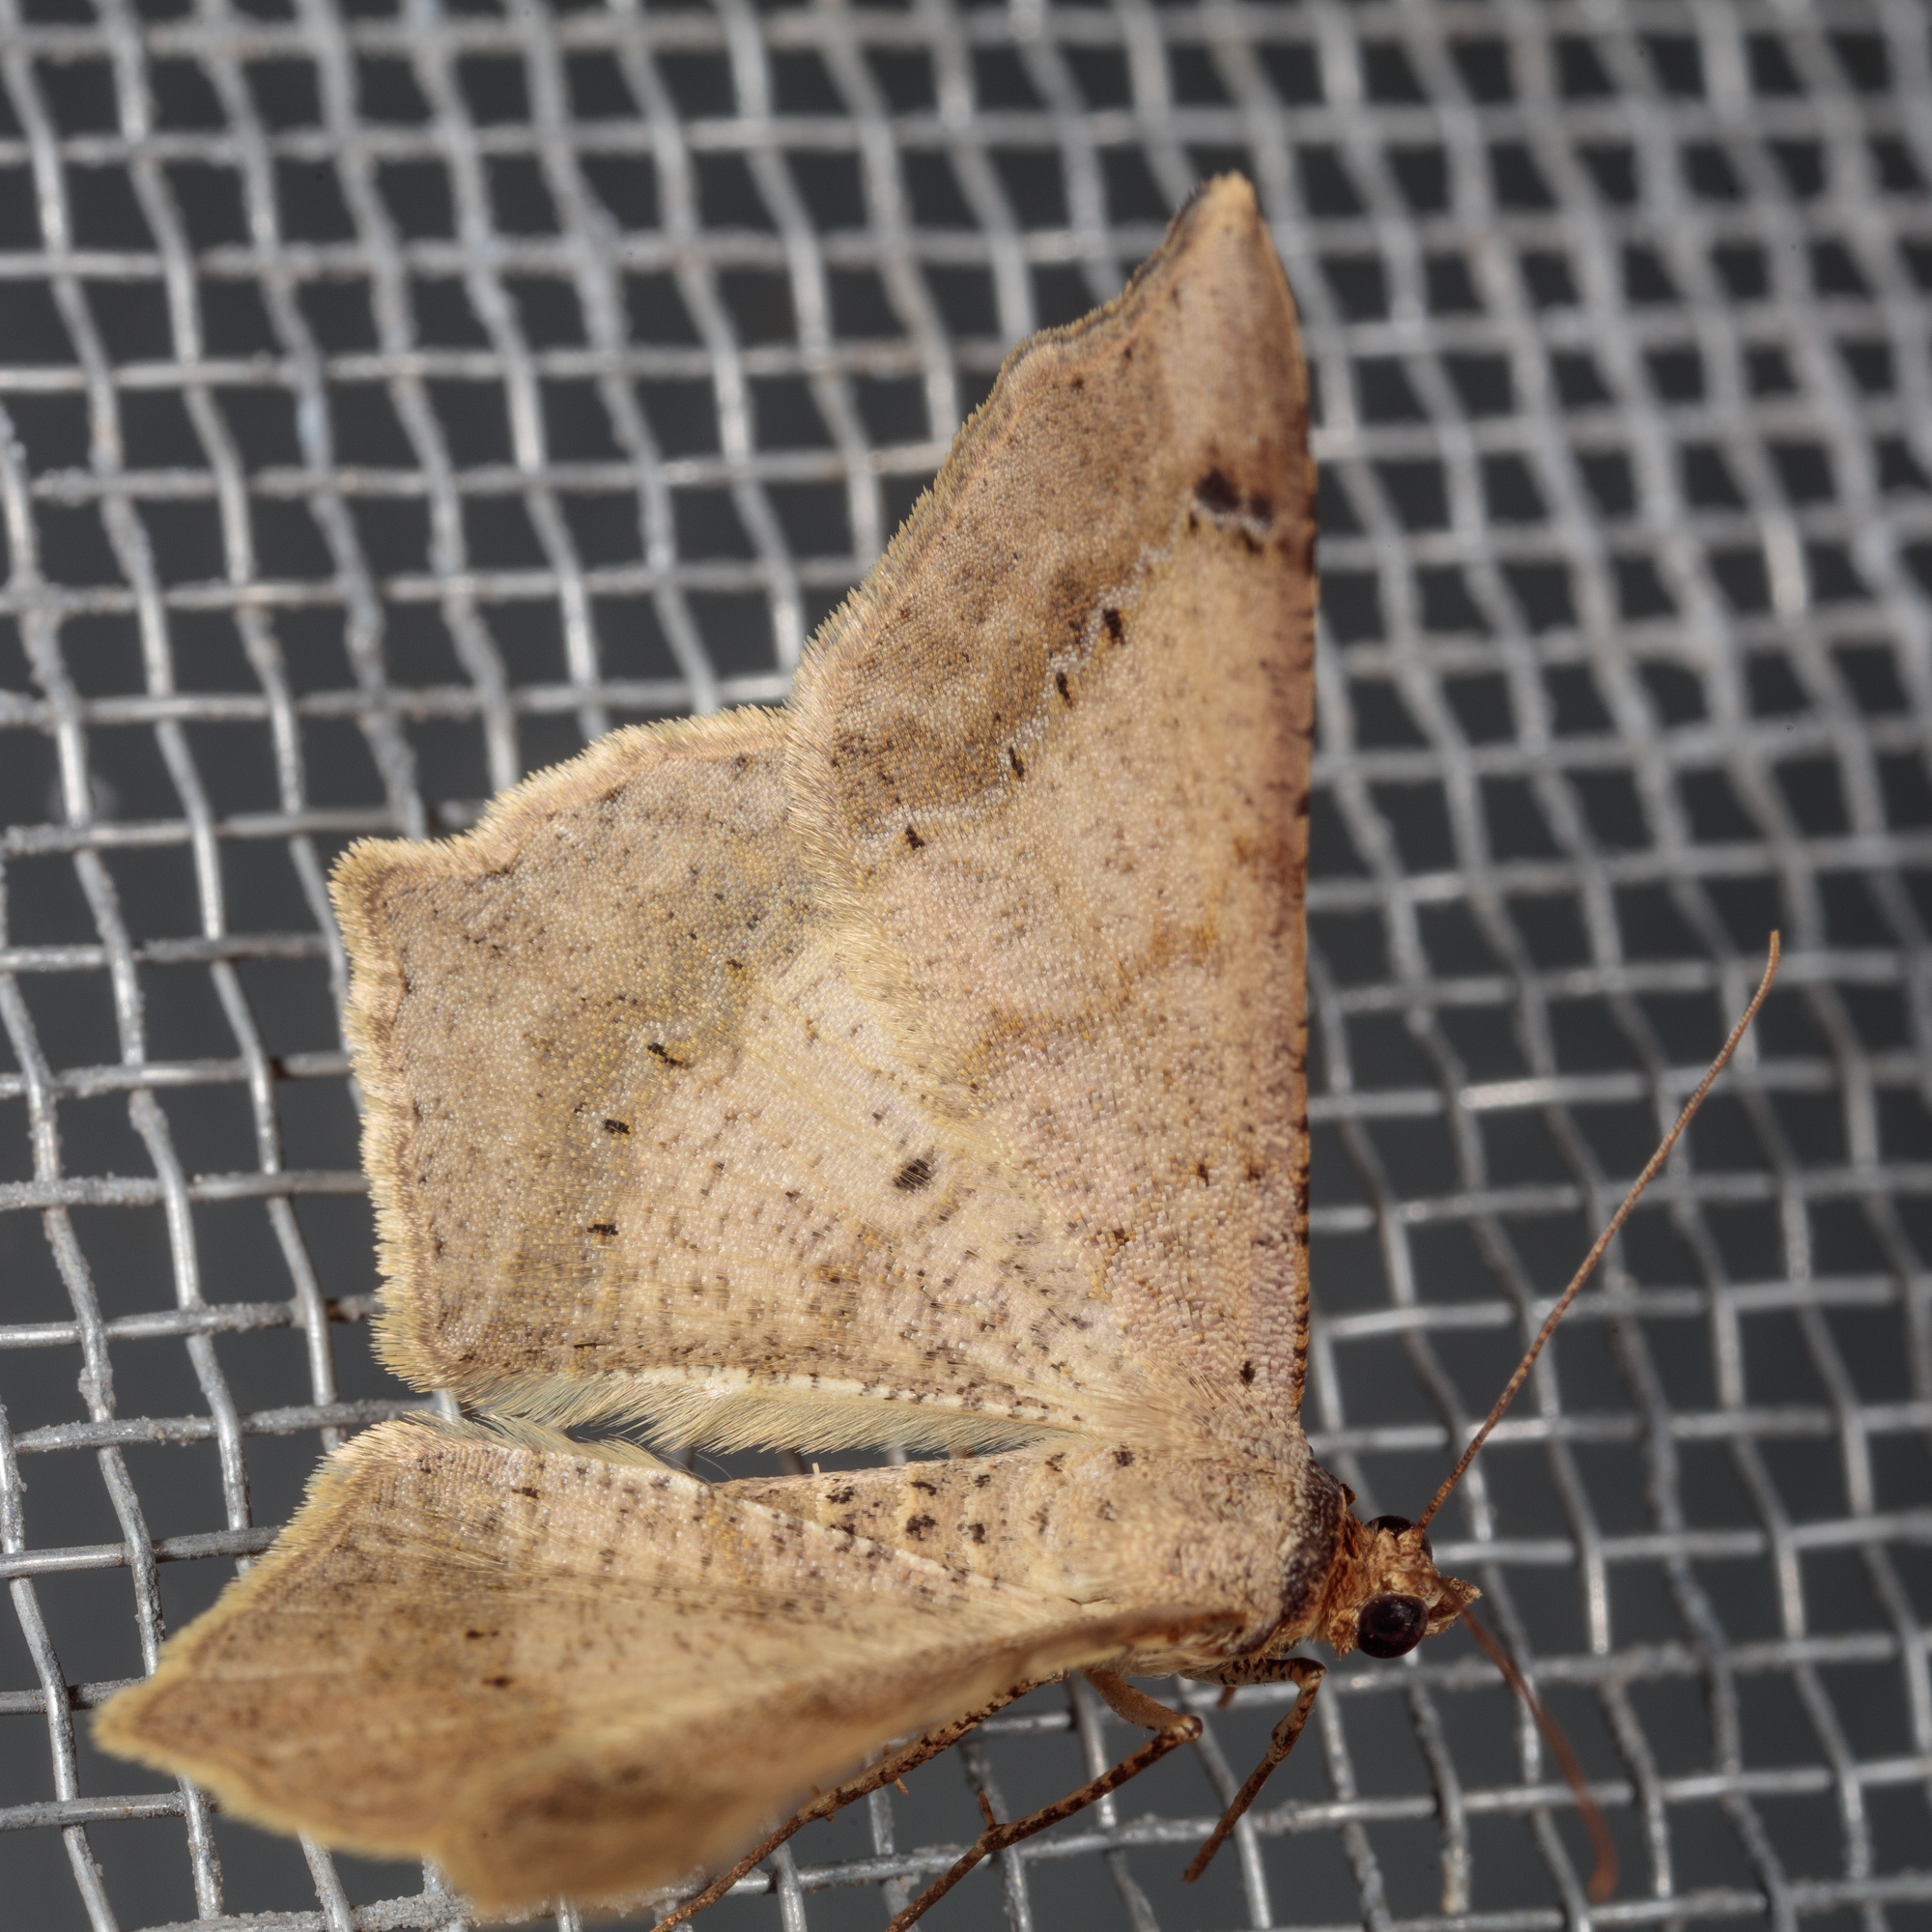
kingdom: Animalia
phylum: Arthropoda
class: Insecta
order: Lepidoptera
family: Geometridae
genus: Macaria
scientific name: Macaria abydata
